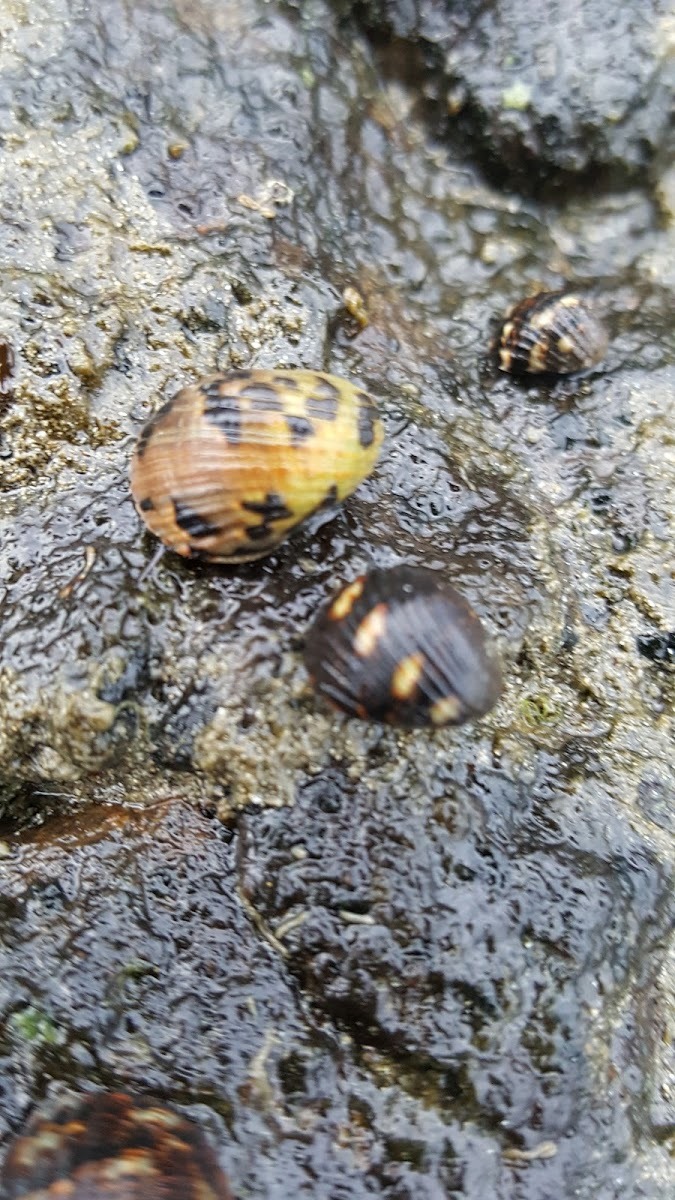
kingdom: Animalia
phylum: Mollusca
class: Gastropoda
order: Cycloneritida
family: Neritidae
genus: Nerita
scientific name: Nerita scabricosta
